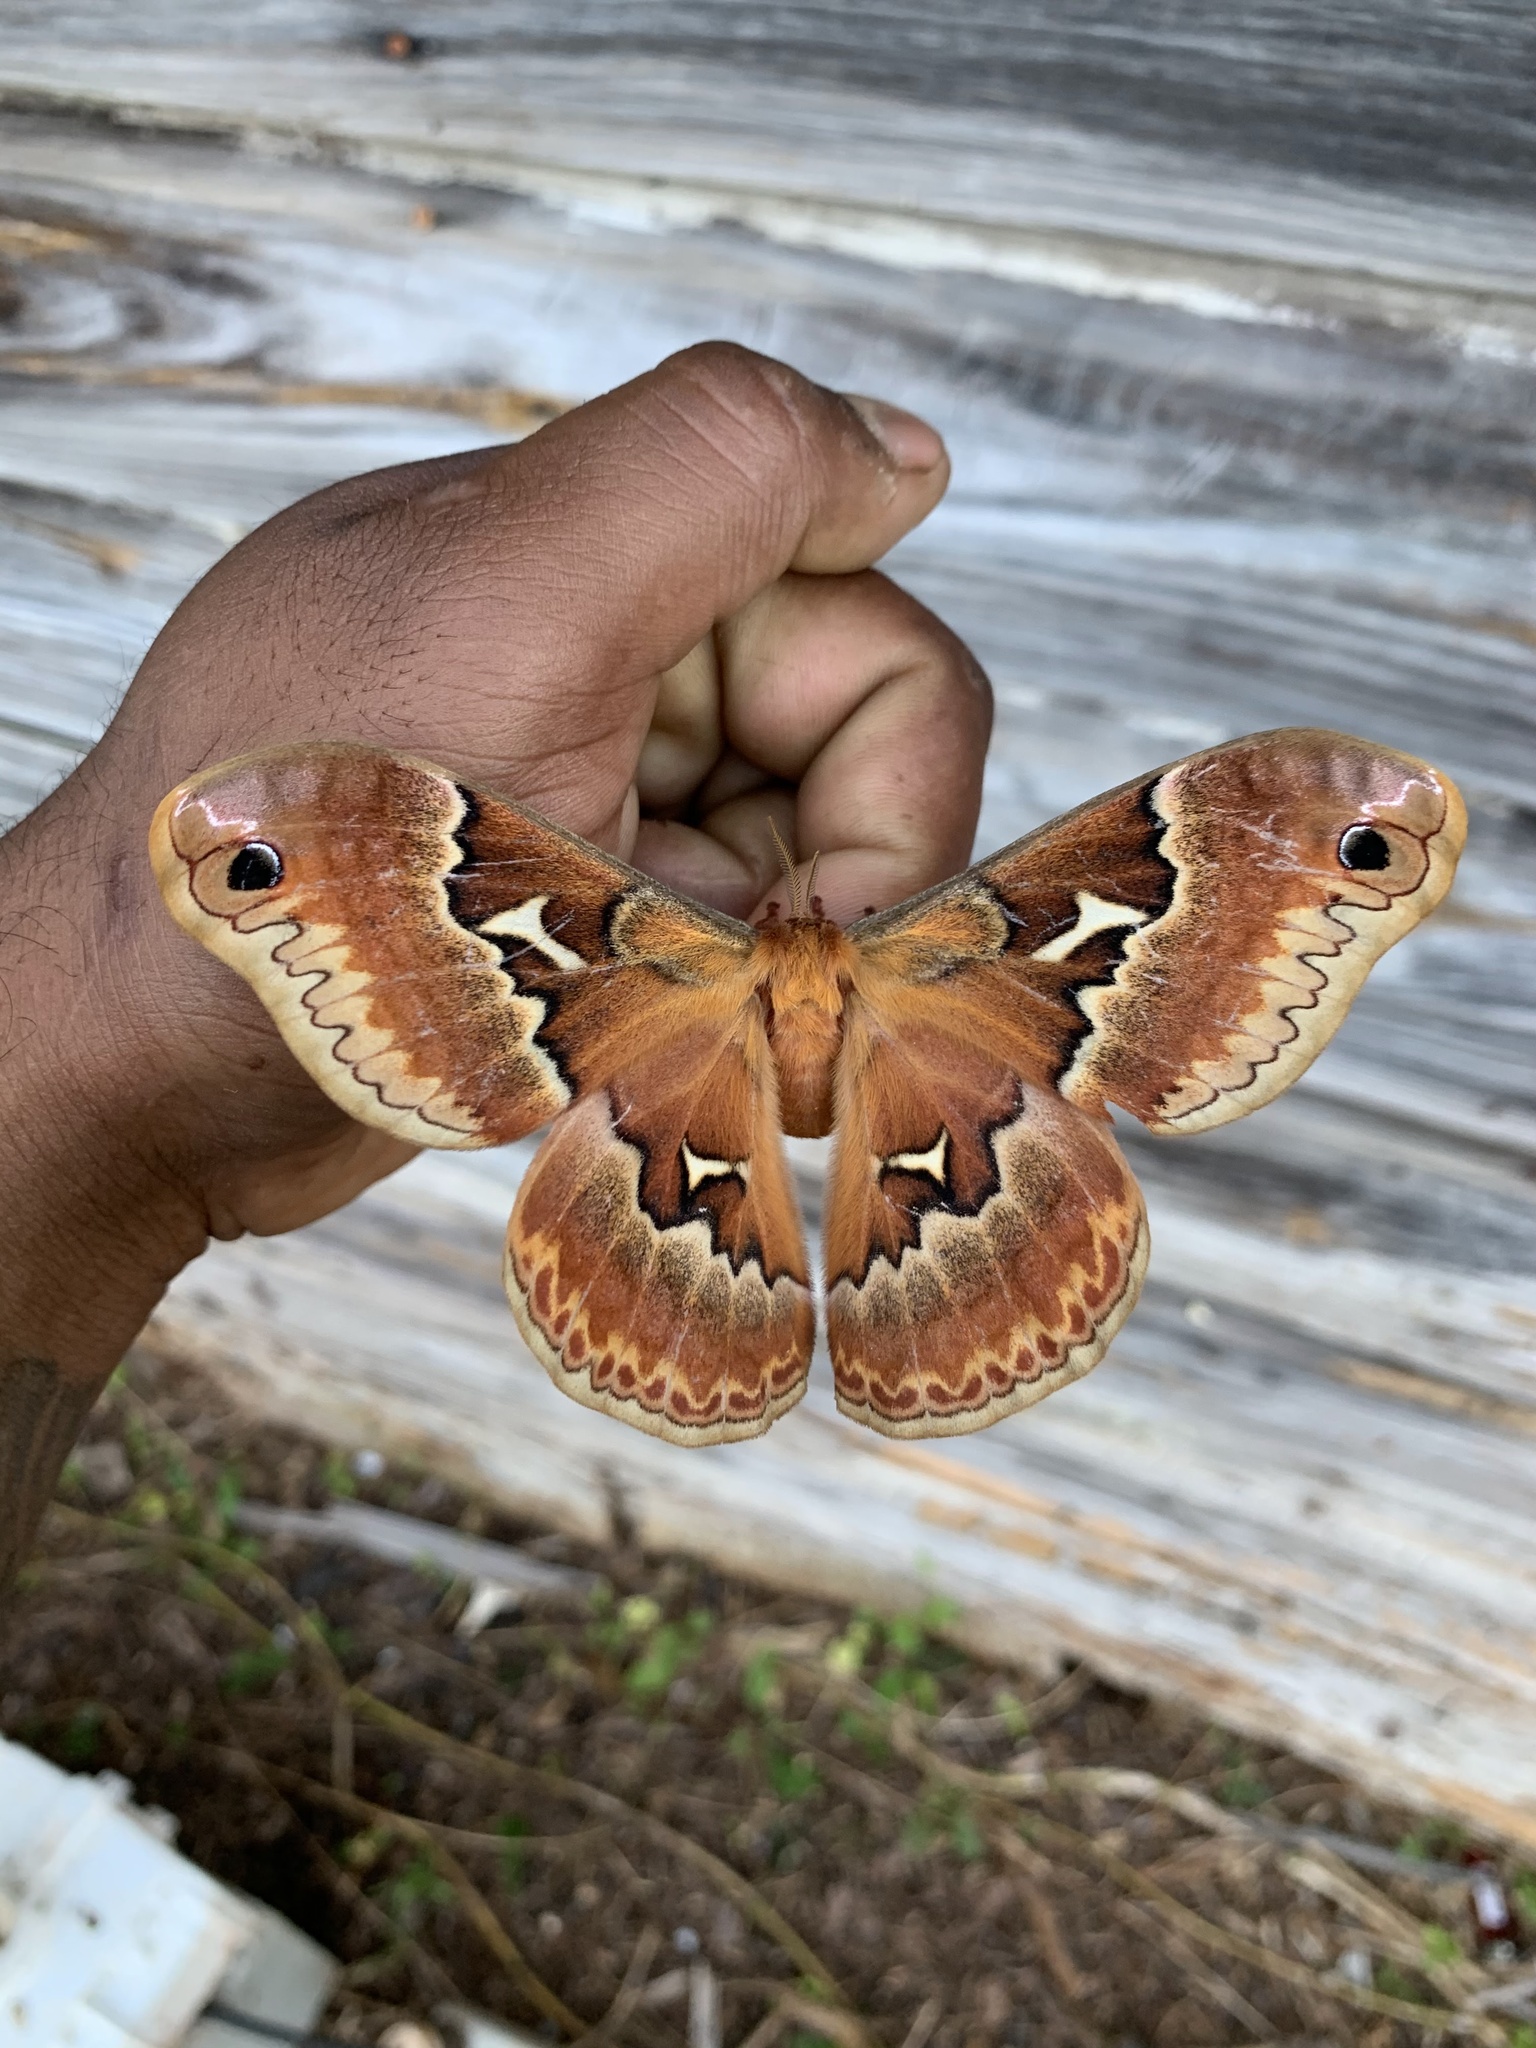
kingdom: Animalia
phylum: Arthropoda
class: Insecta
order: Lepidoptera
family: Saturniidae
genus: Callosamia
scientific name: Callosamia angulifera
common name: Tulip tree silkmoth
